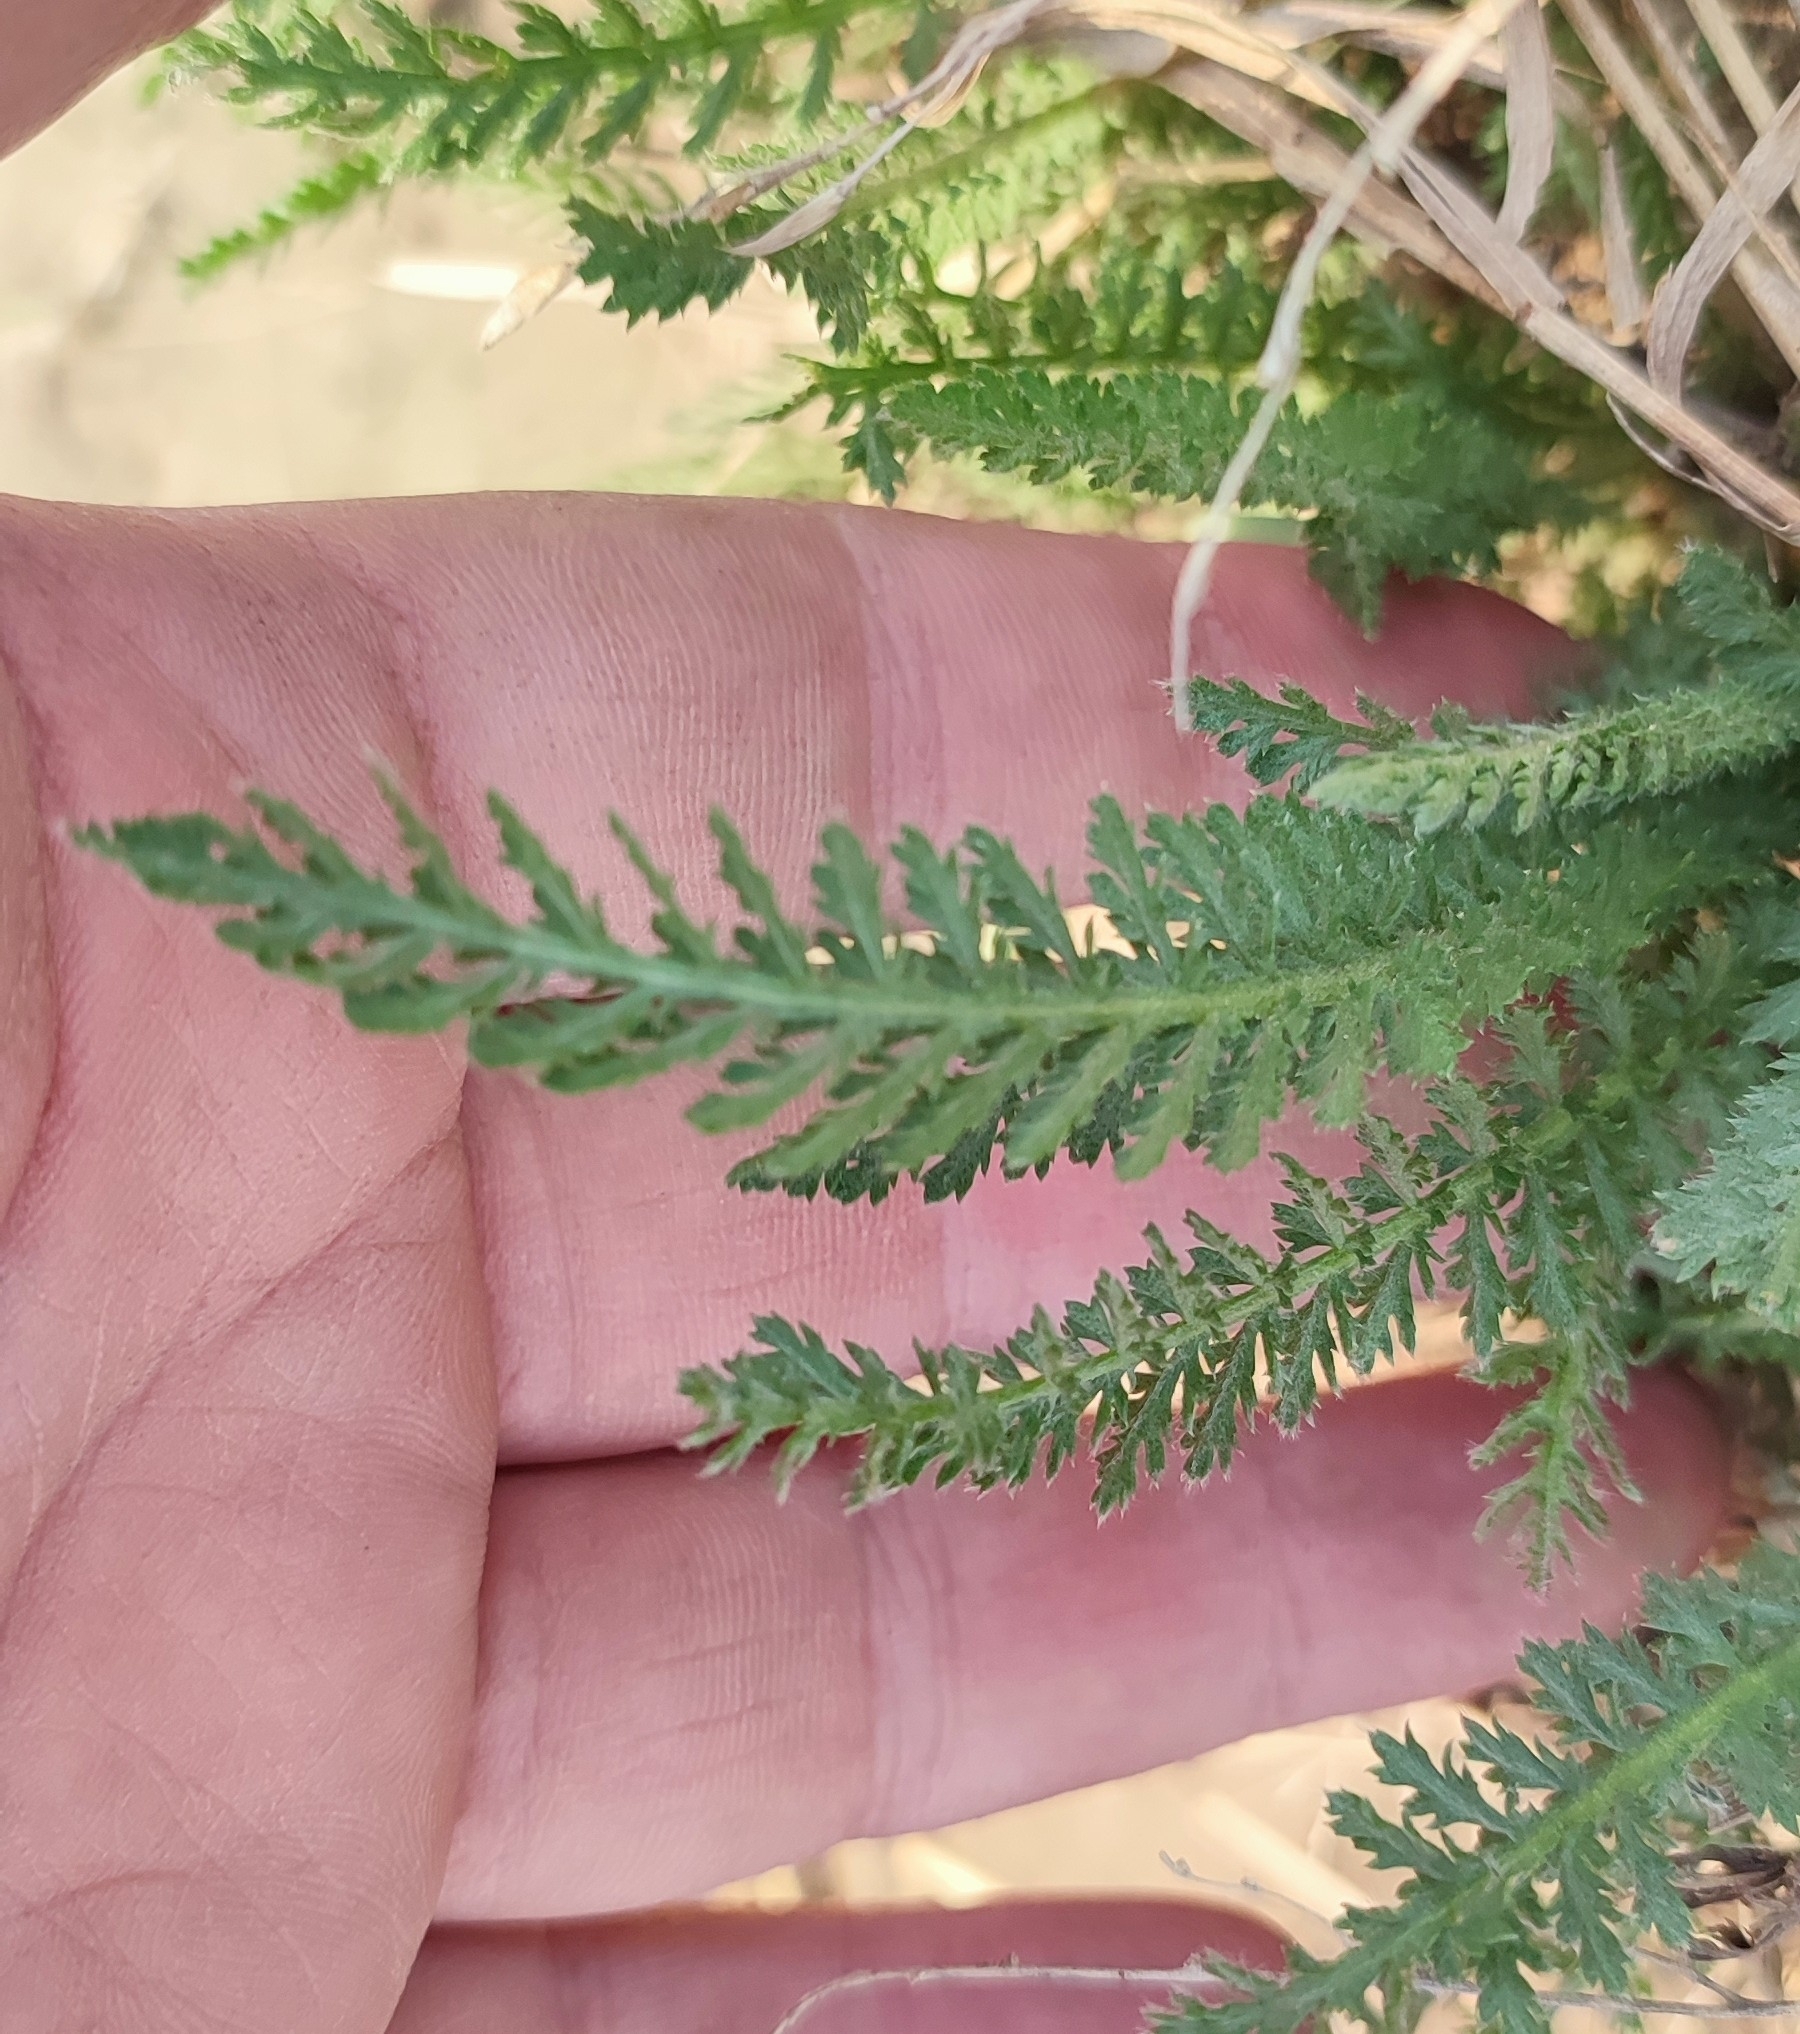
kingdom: Plantae
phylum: Tracheophyta
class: Magnoliopsida
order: Asterales
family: Asteraceae
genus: Achillea
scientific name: Achillea millefolium
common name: Yarrow
